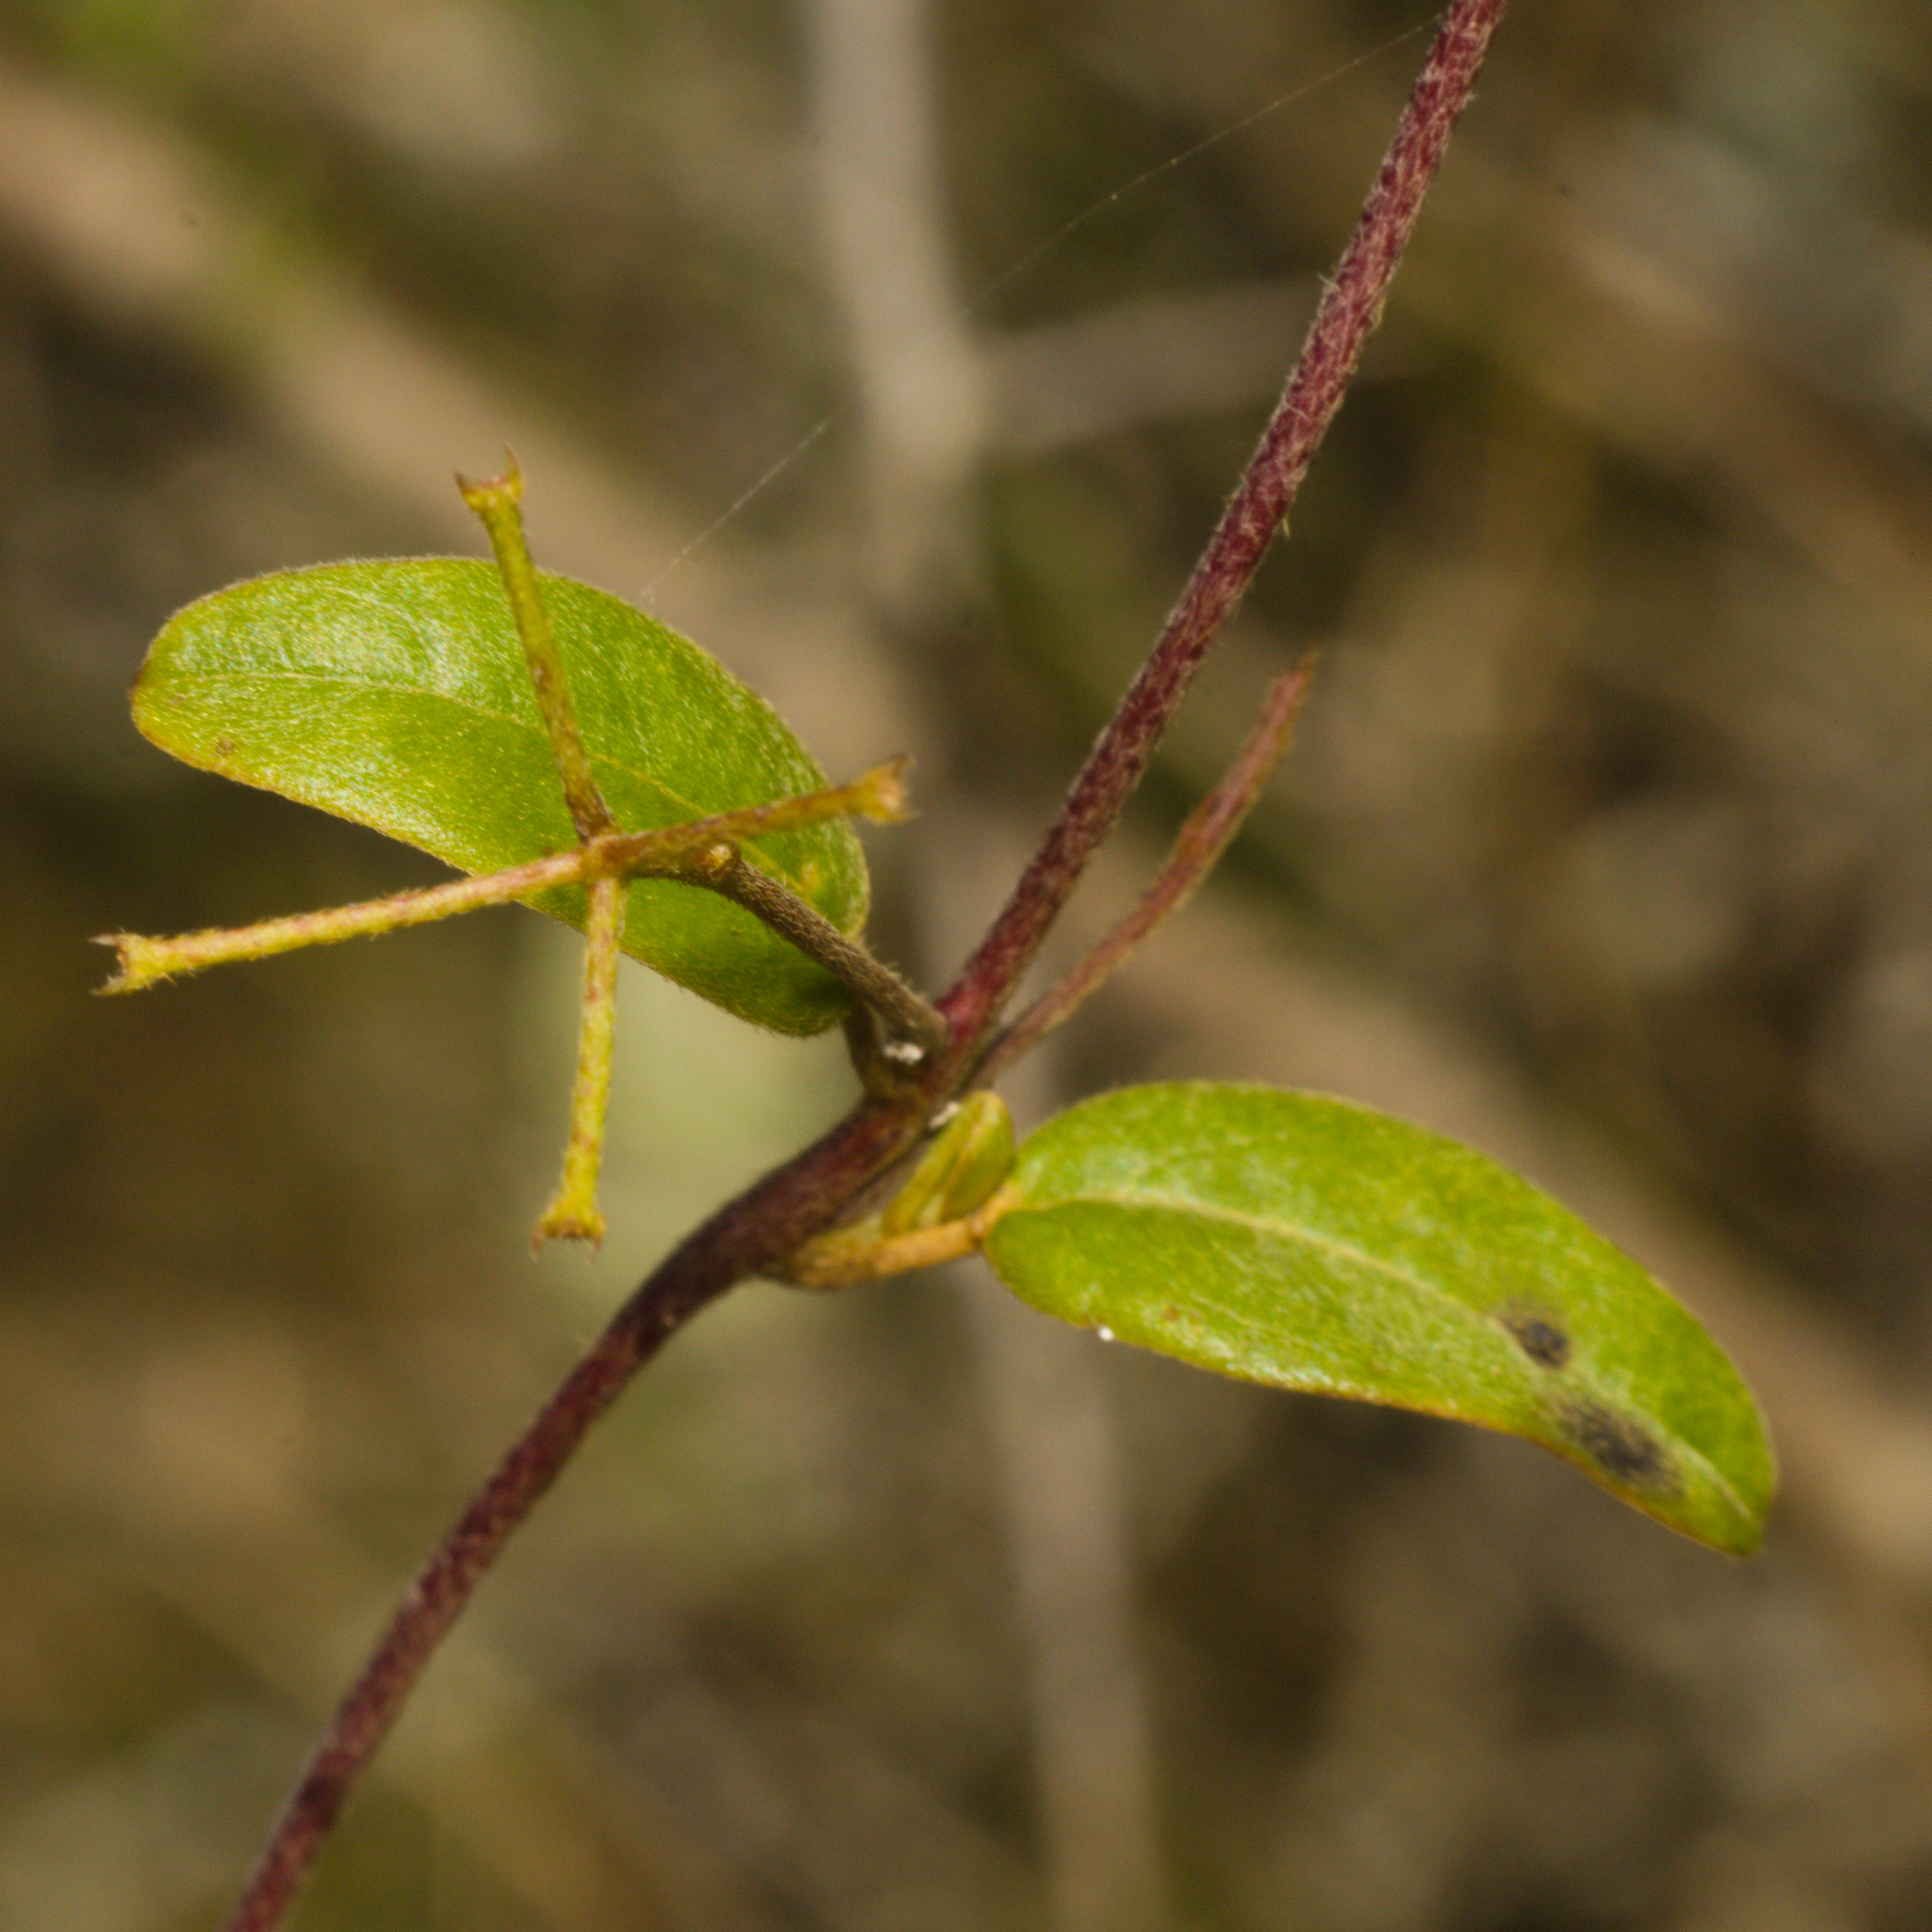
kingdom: Plantae
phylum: Tracheophyta
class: Magnoliopsida
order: Malpighiales
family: Malpighiaceae
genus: Janusia
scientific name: Janusia guaranitica
